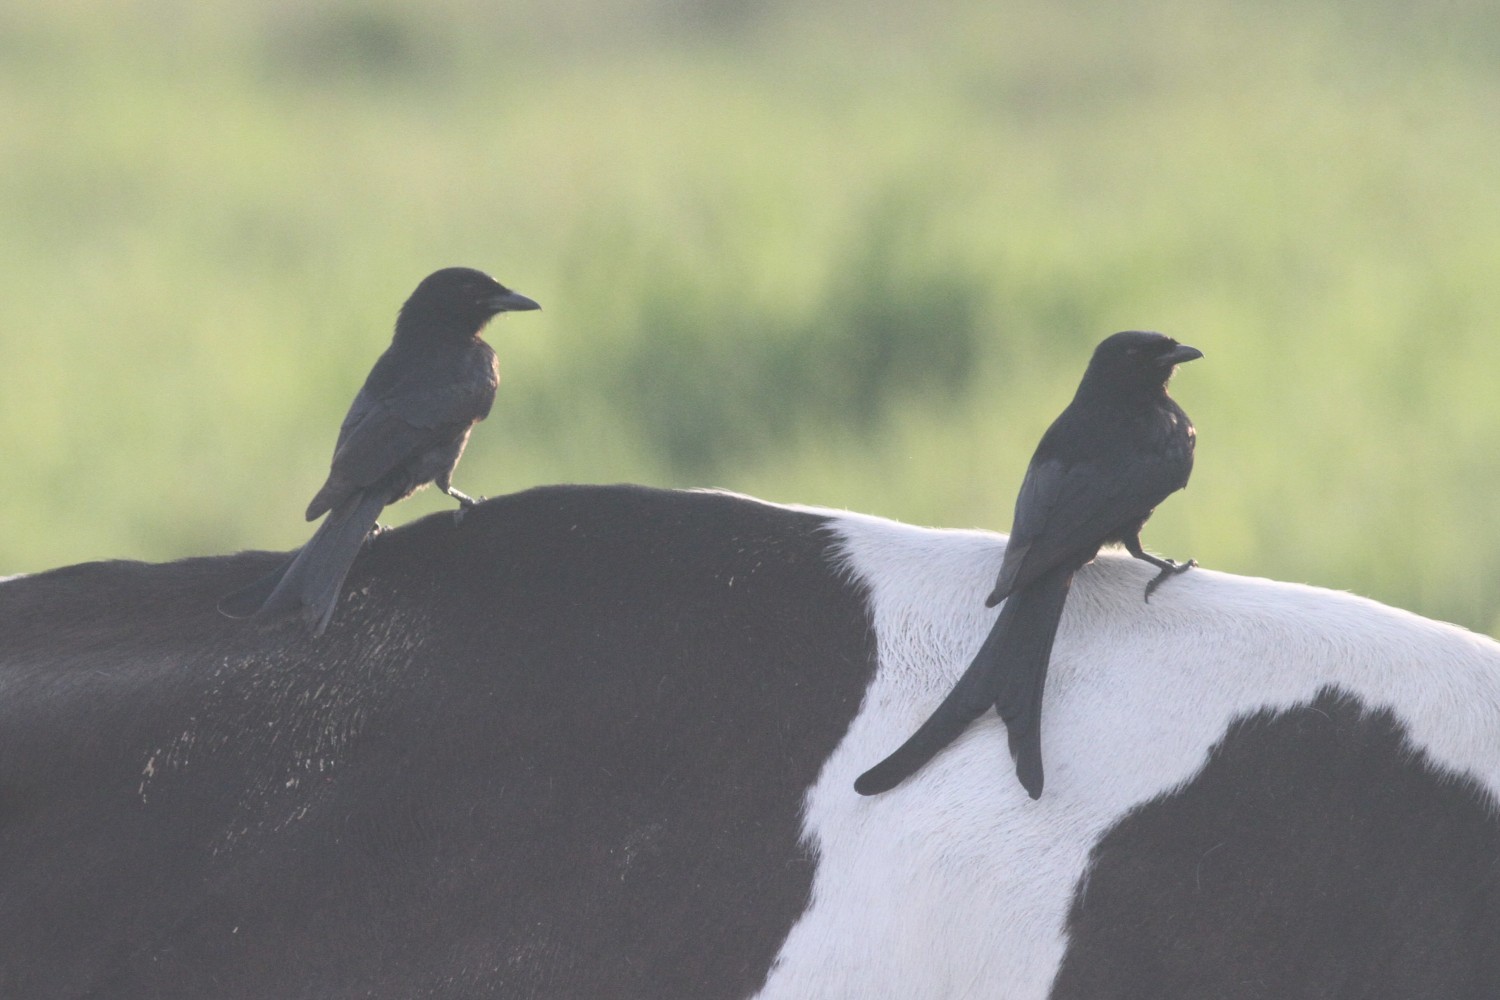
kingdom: Animalia
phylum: Chordata
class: Aves
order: Passeriformes
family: Dicruridae
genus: Dicrurus
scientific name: Dicrurus macrocercus
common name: Black drongo
